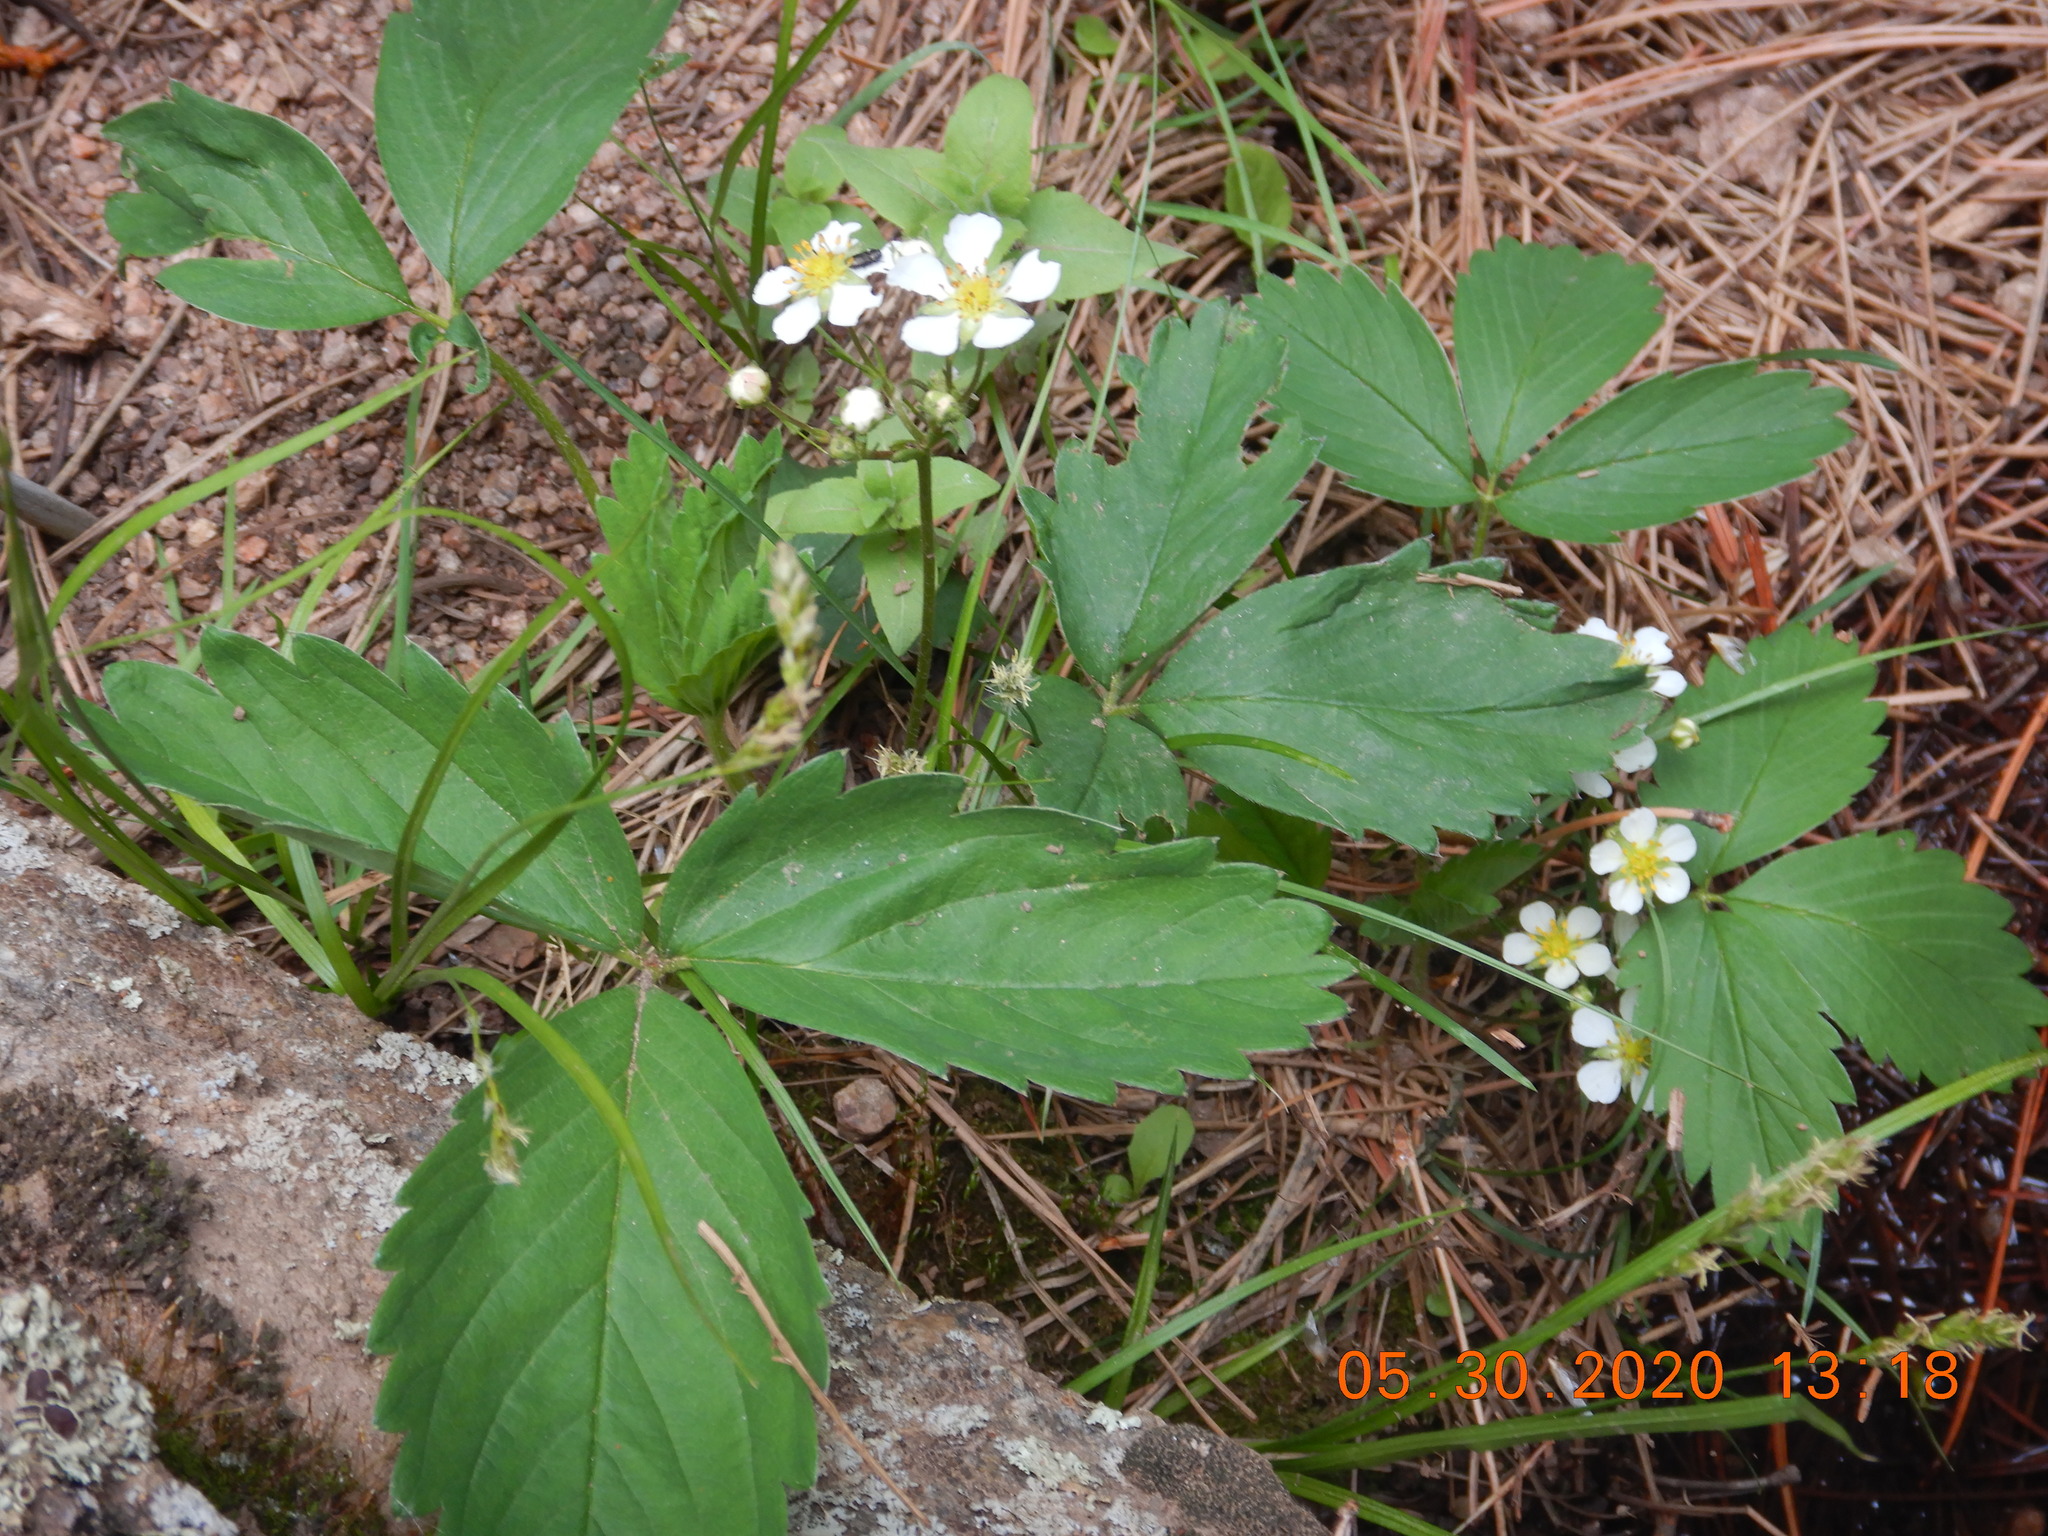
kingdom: Plantae
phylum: Tracheophyta
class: Magnoliopsida
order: Rosales
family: Rosaceae
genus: Fragaria
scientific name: Fragaria virginiana
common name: Thickleaved wild strawberry
